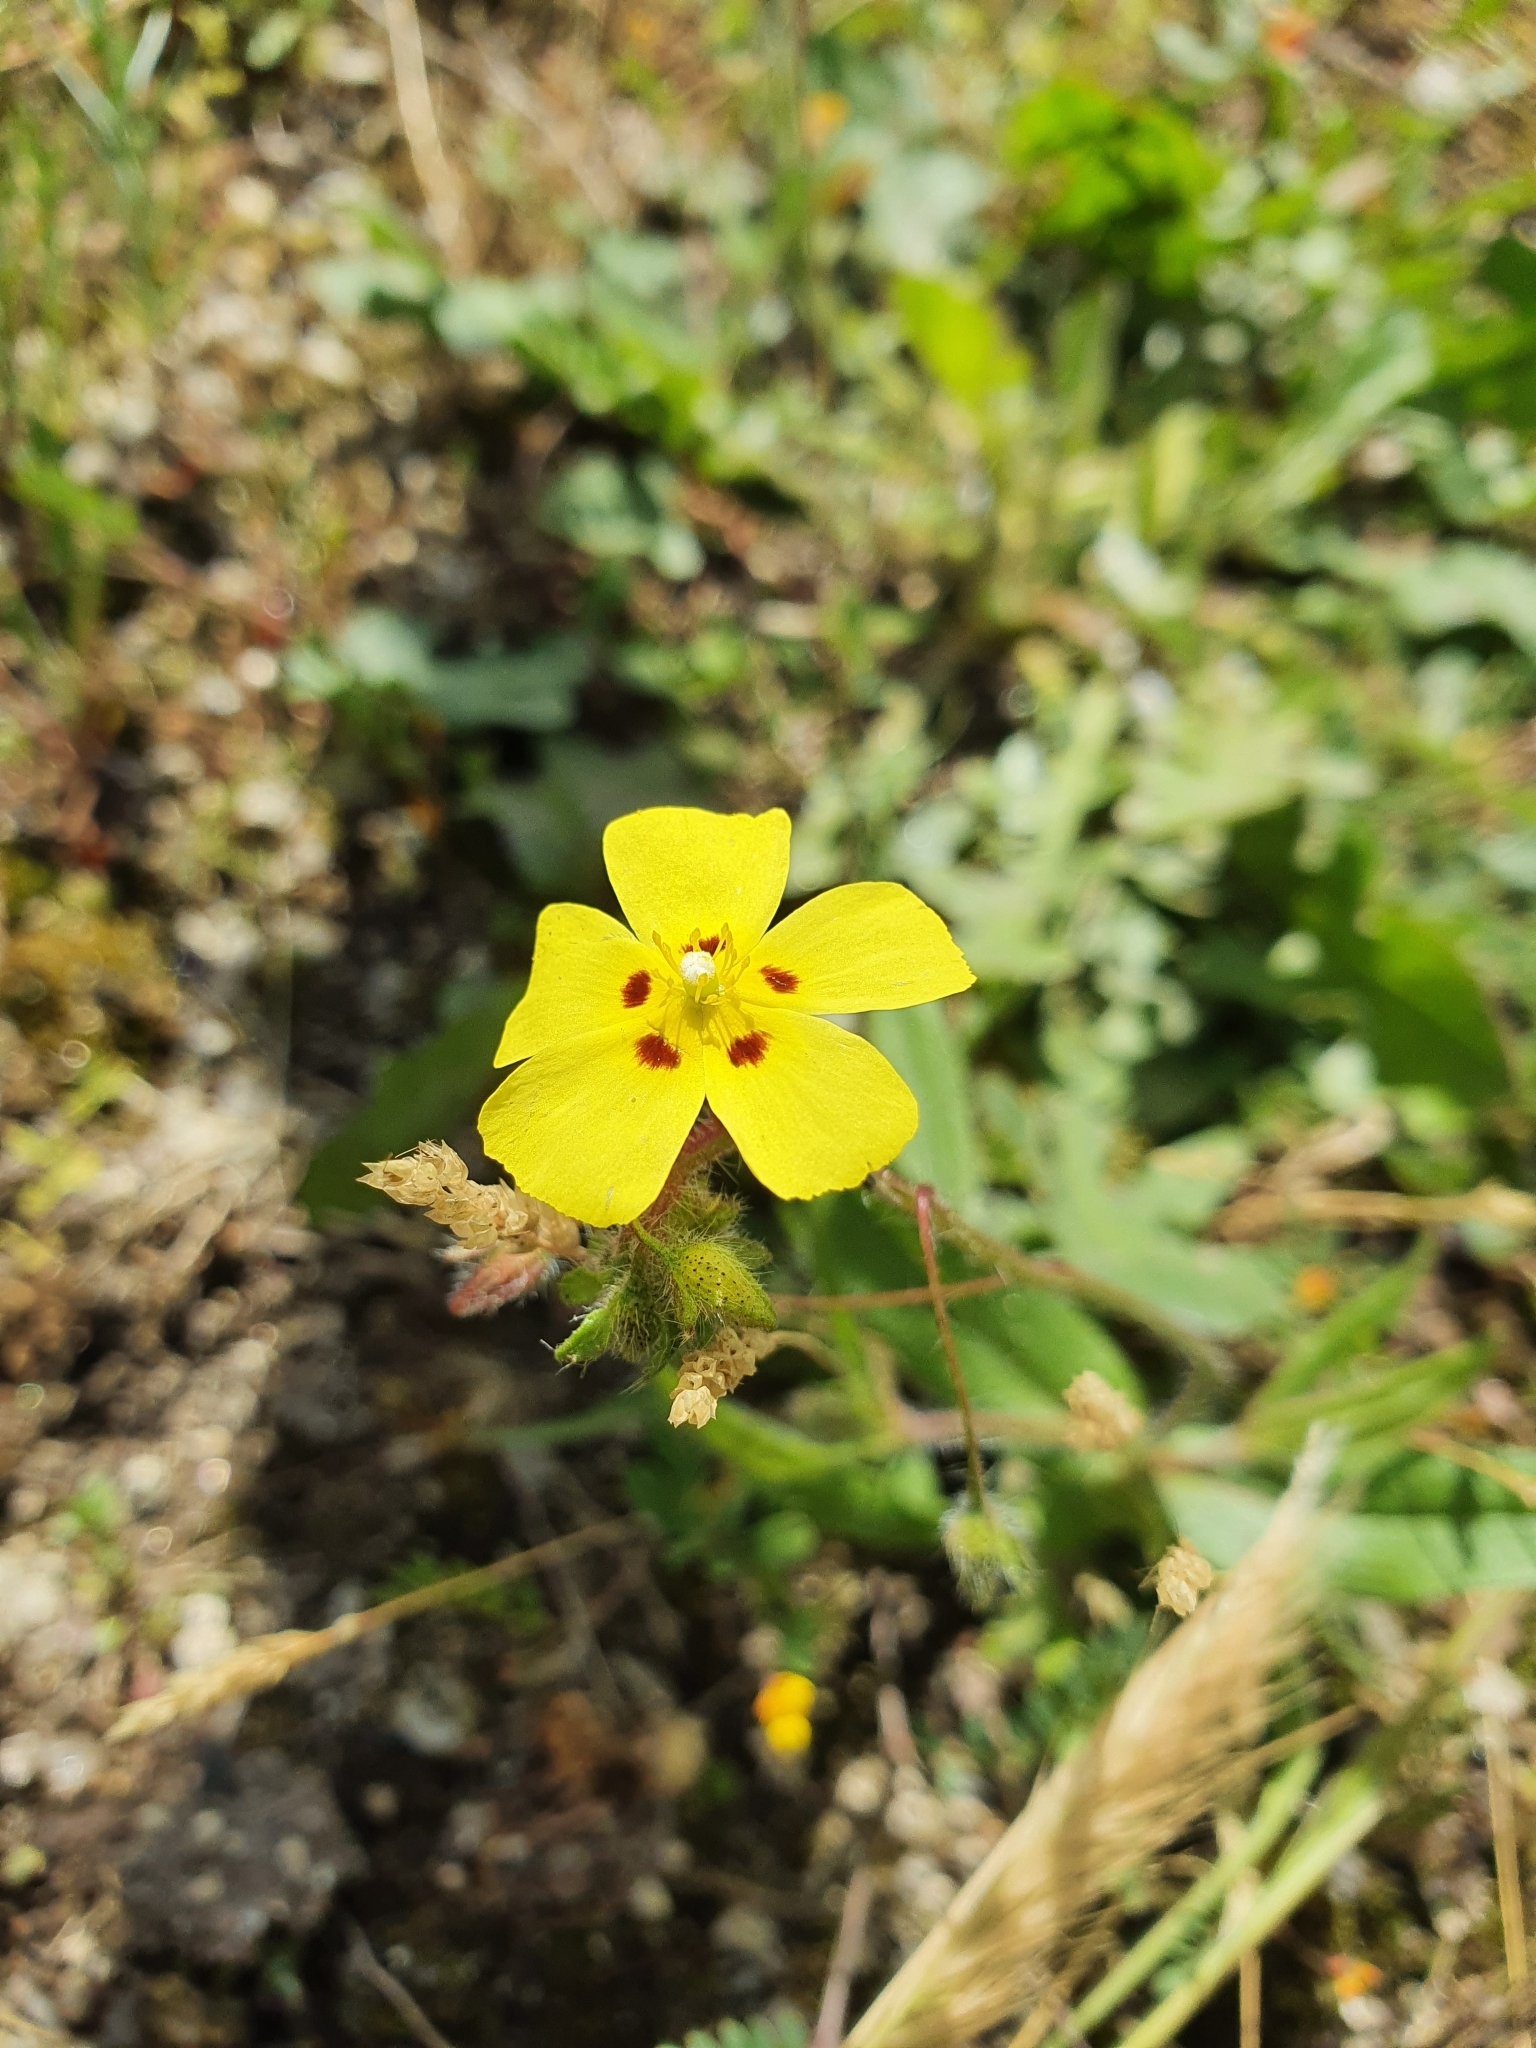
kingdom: Plantae
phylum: Tracheophyta
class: Magnoliopsida
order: Malvales
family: Cistaceae
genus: Tuberaria
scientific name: Tuberaria guttata
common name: Spotted rock-rose
